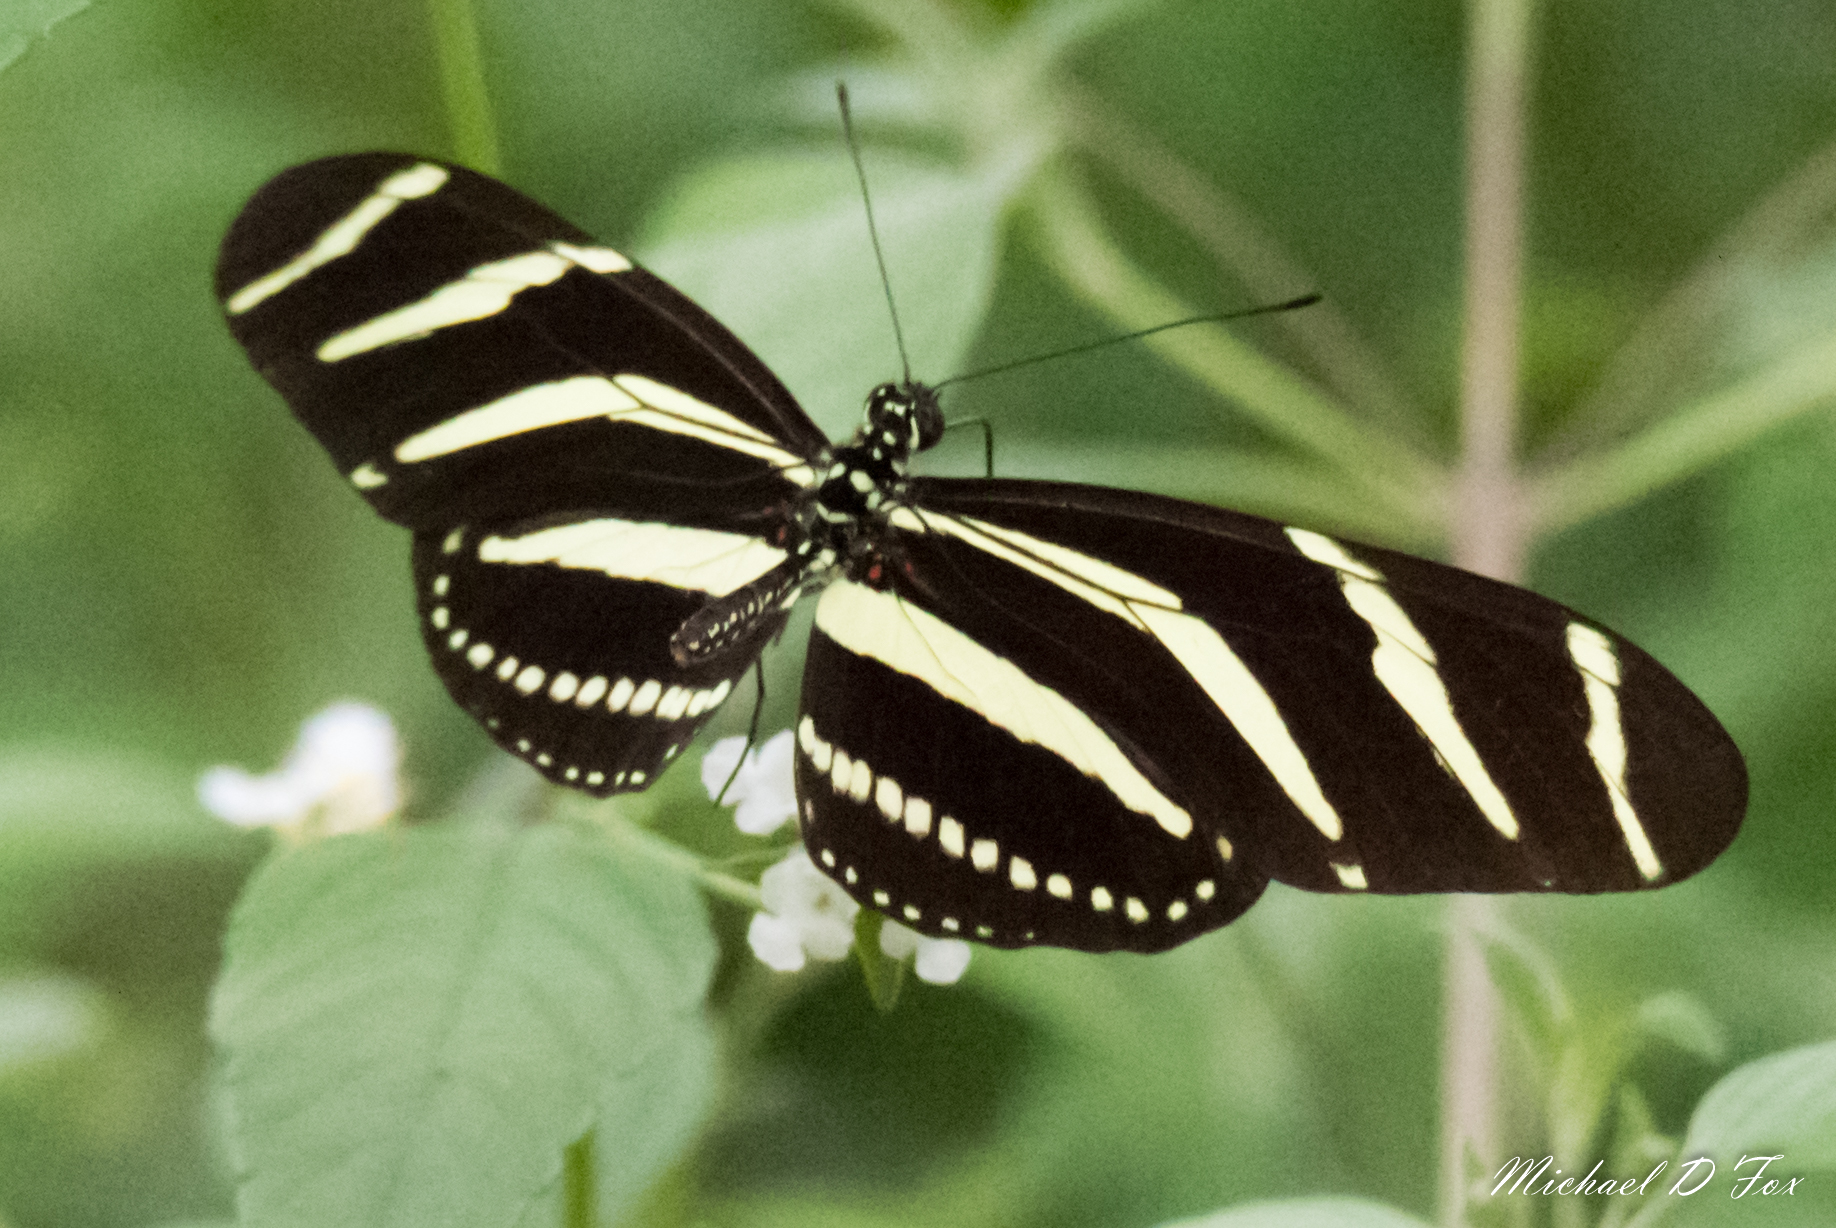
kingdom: Animalia
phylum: Arthropoda
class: Insecta
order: Lepidoptera
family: Nymphalidae
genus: Heliconius
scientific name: Heliconius charithonia
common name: Zebra long wing
